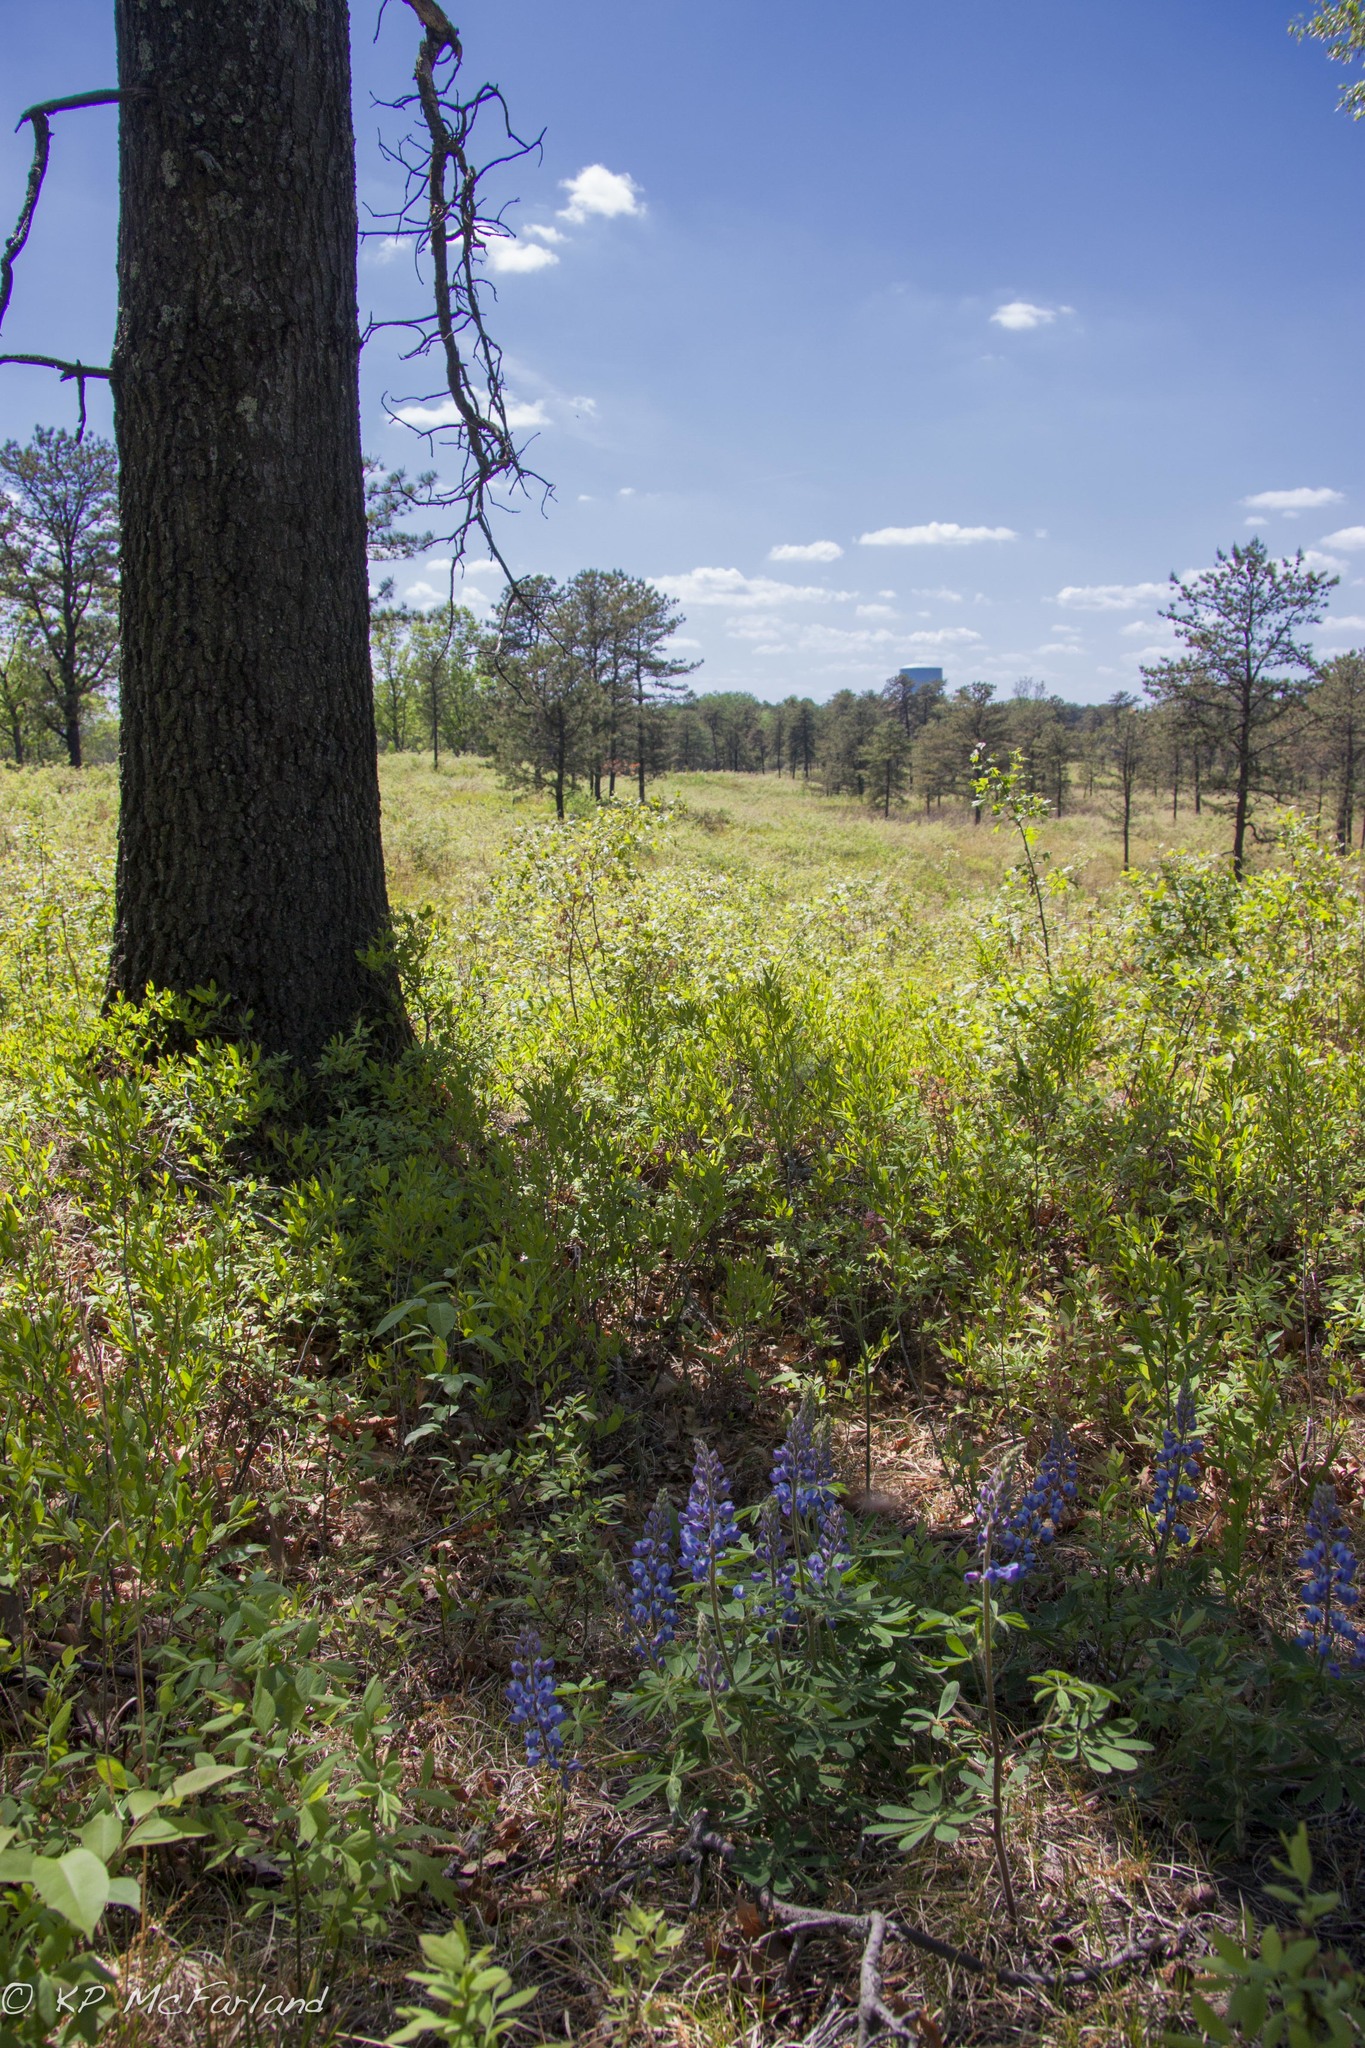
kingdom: Plantae
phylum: Tracheophyta
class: Magnoliopsida
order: Fabales
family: Fabaceae
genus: Lupinus
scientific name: Lupinus perennis
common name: Sundial lupine
